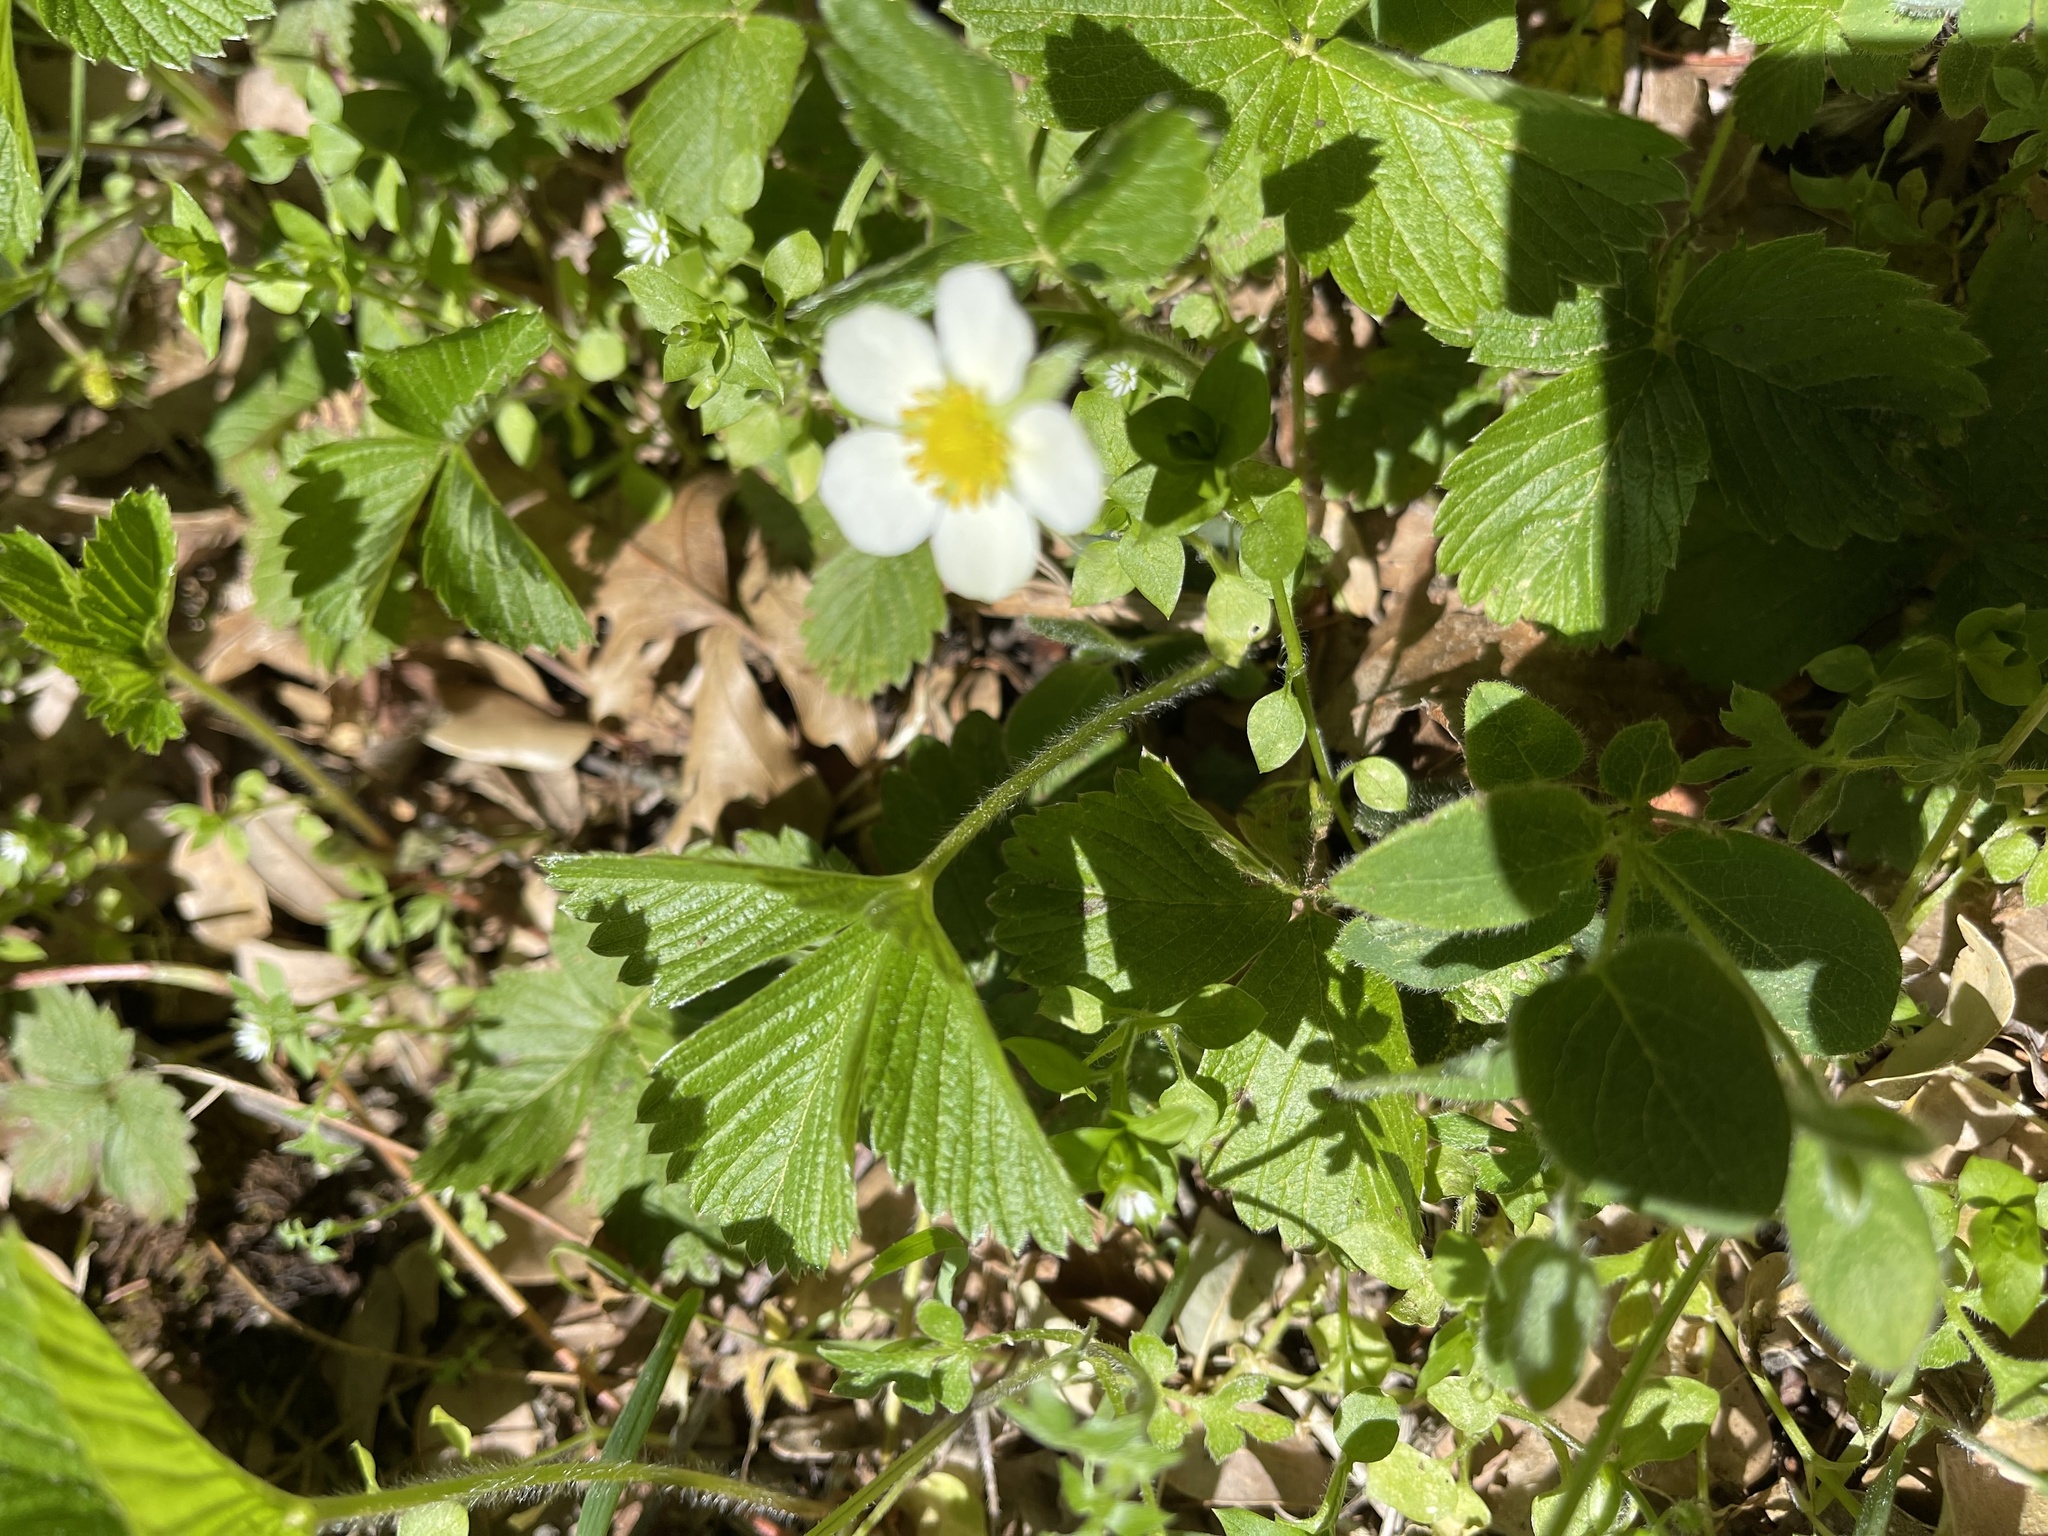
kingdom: Plantae
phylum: Tracheophyta
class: Magnoliopsida
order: Rosales
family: Rosaceae
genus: Fragaria
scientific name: Fragaria vesca
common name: Wild strawberry
